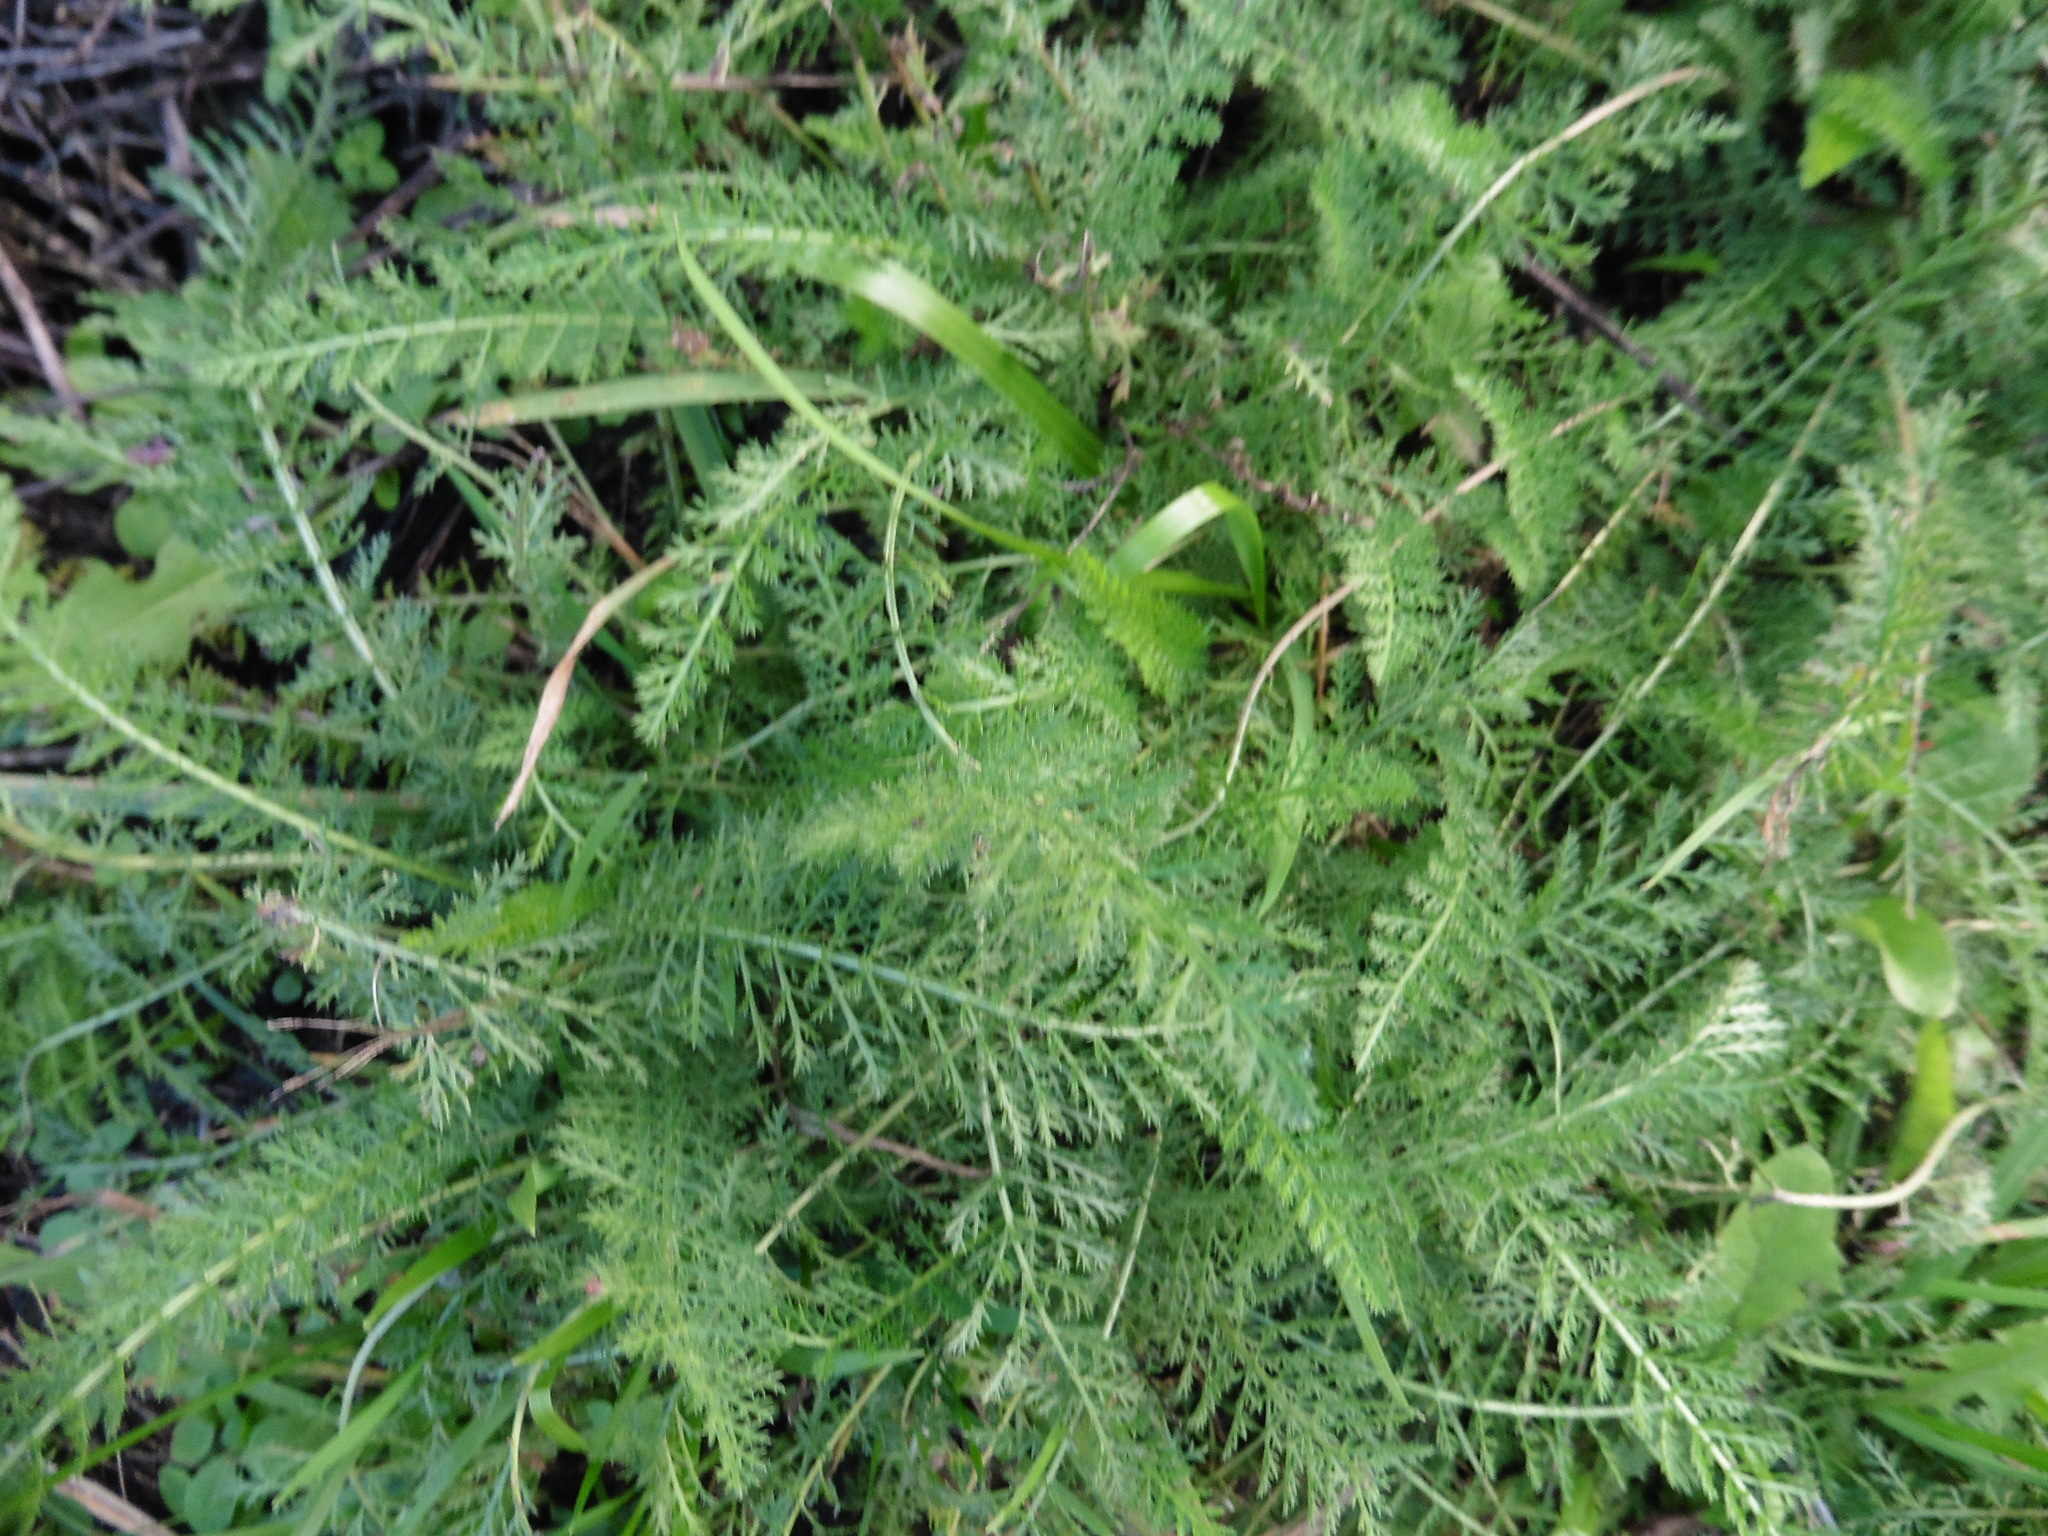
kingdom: Plantae
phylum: Tracheophyta
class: Magnoliopsida
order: Asterales
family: Asteraceae
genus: Achillea
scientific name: Achillea millefolium
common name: Yarrow
